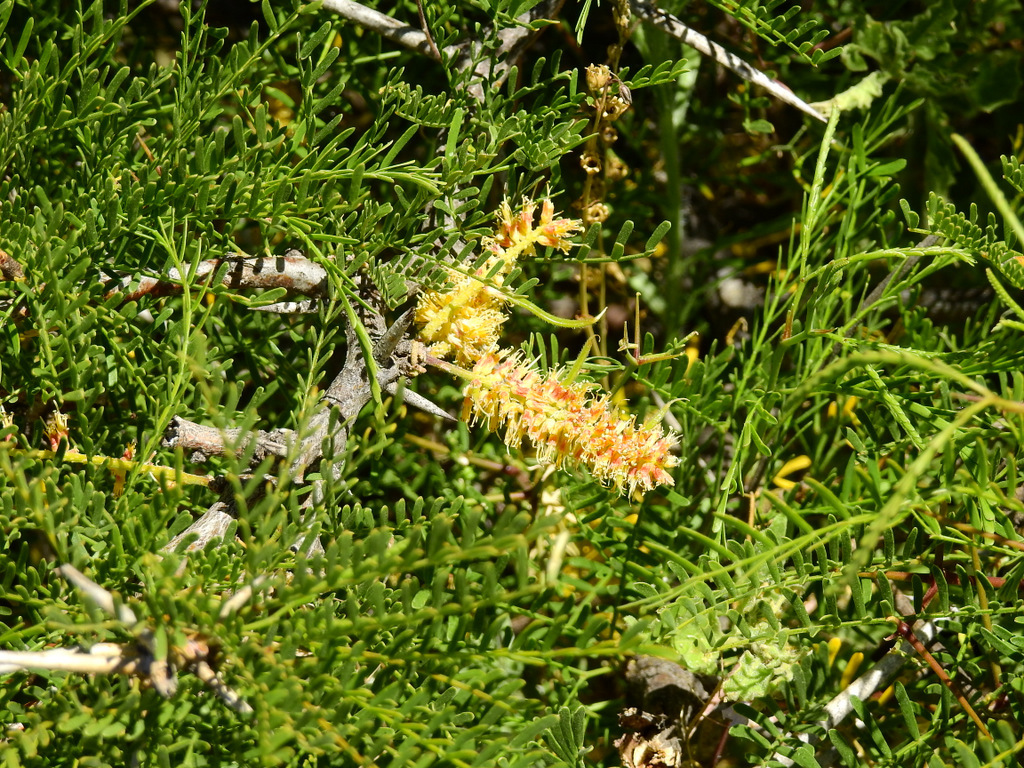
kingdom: Plantae
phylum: Tracheophyta
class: Magnoliopsida
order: Fabales
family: Fabaceae
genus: Prosopis
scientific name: Prosopis flexuosa
